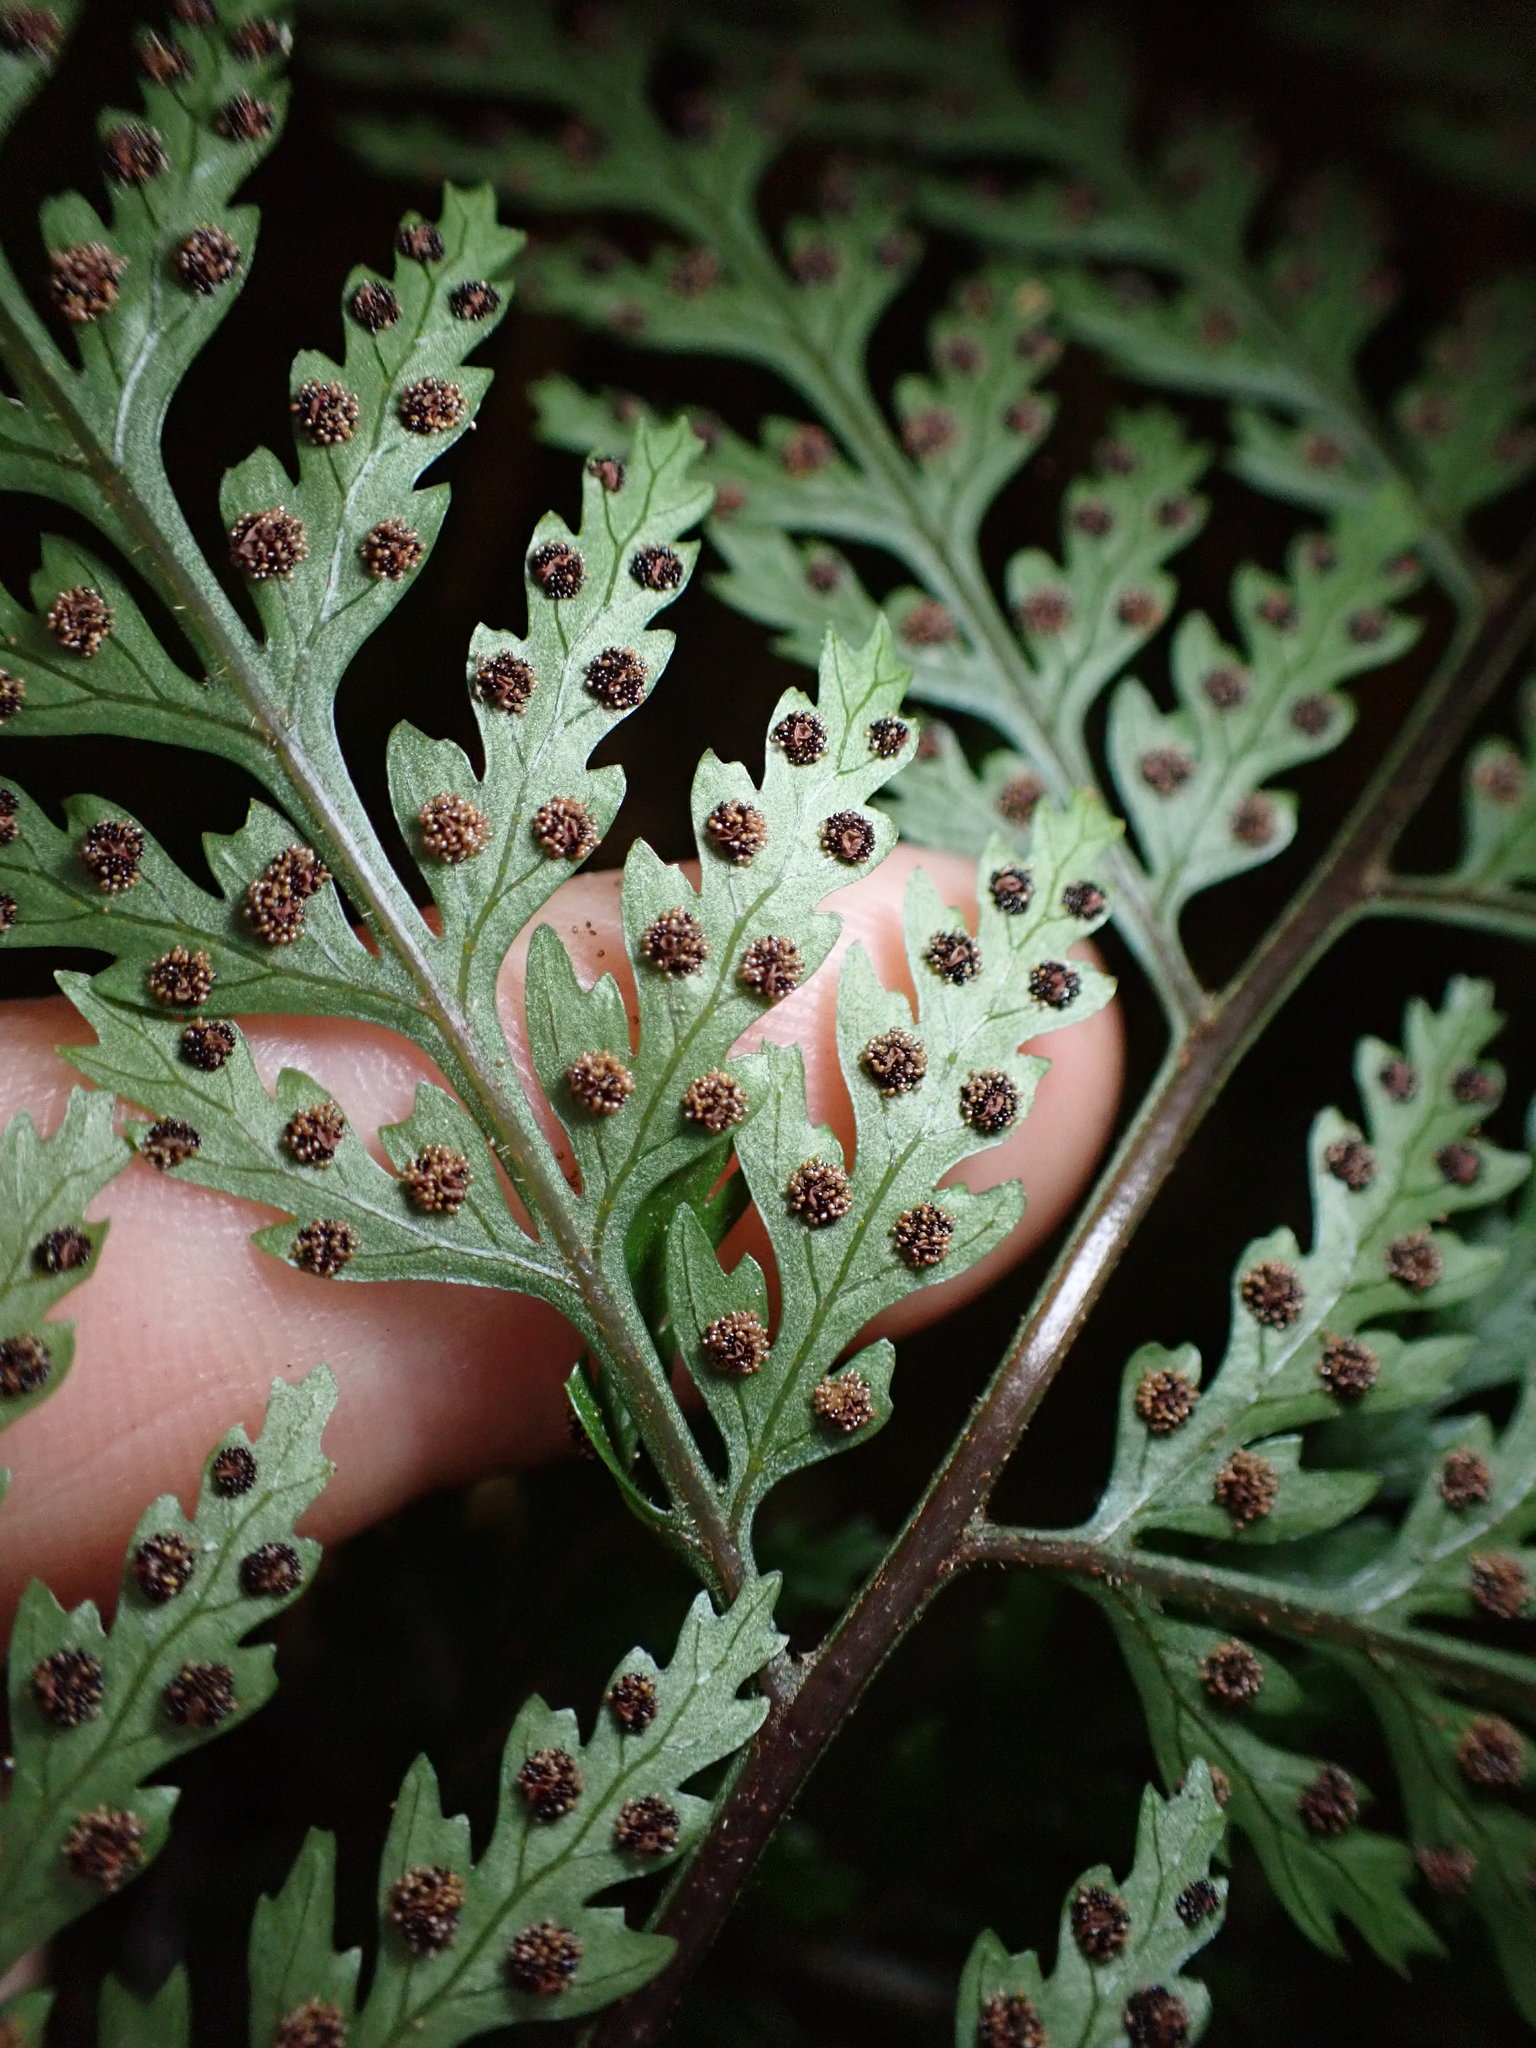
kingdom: Plantae
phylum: Tracheophyta
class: Polypodiopsida
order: Polypodiales
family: Dryopteridaceae
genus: Parapolystichum
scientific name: Parapolystichum glabellum
